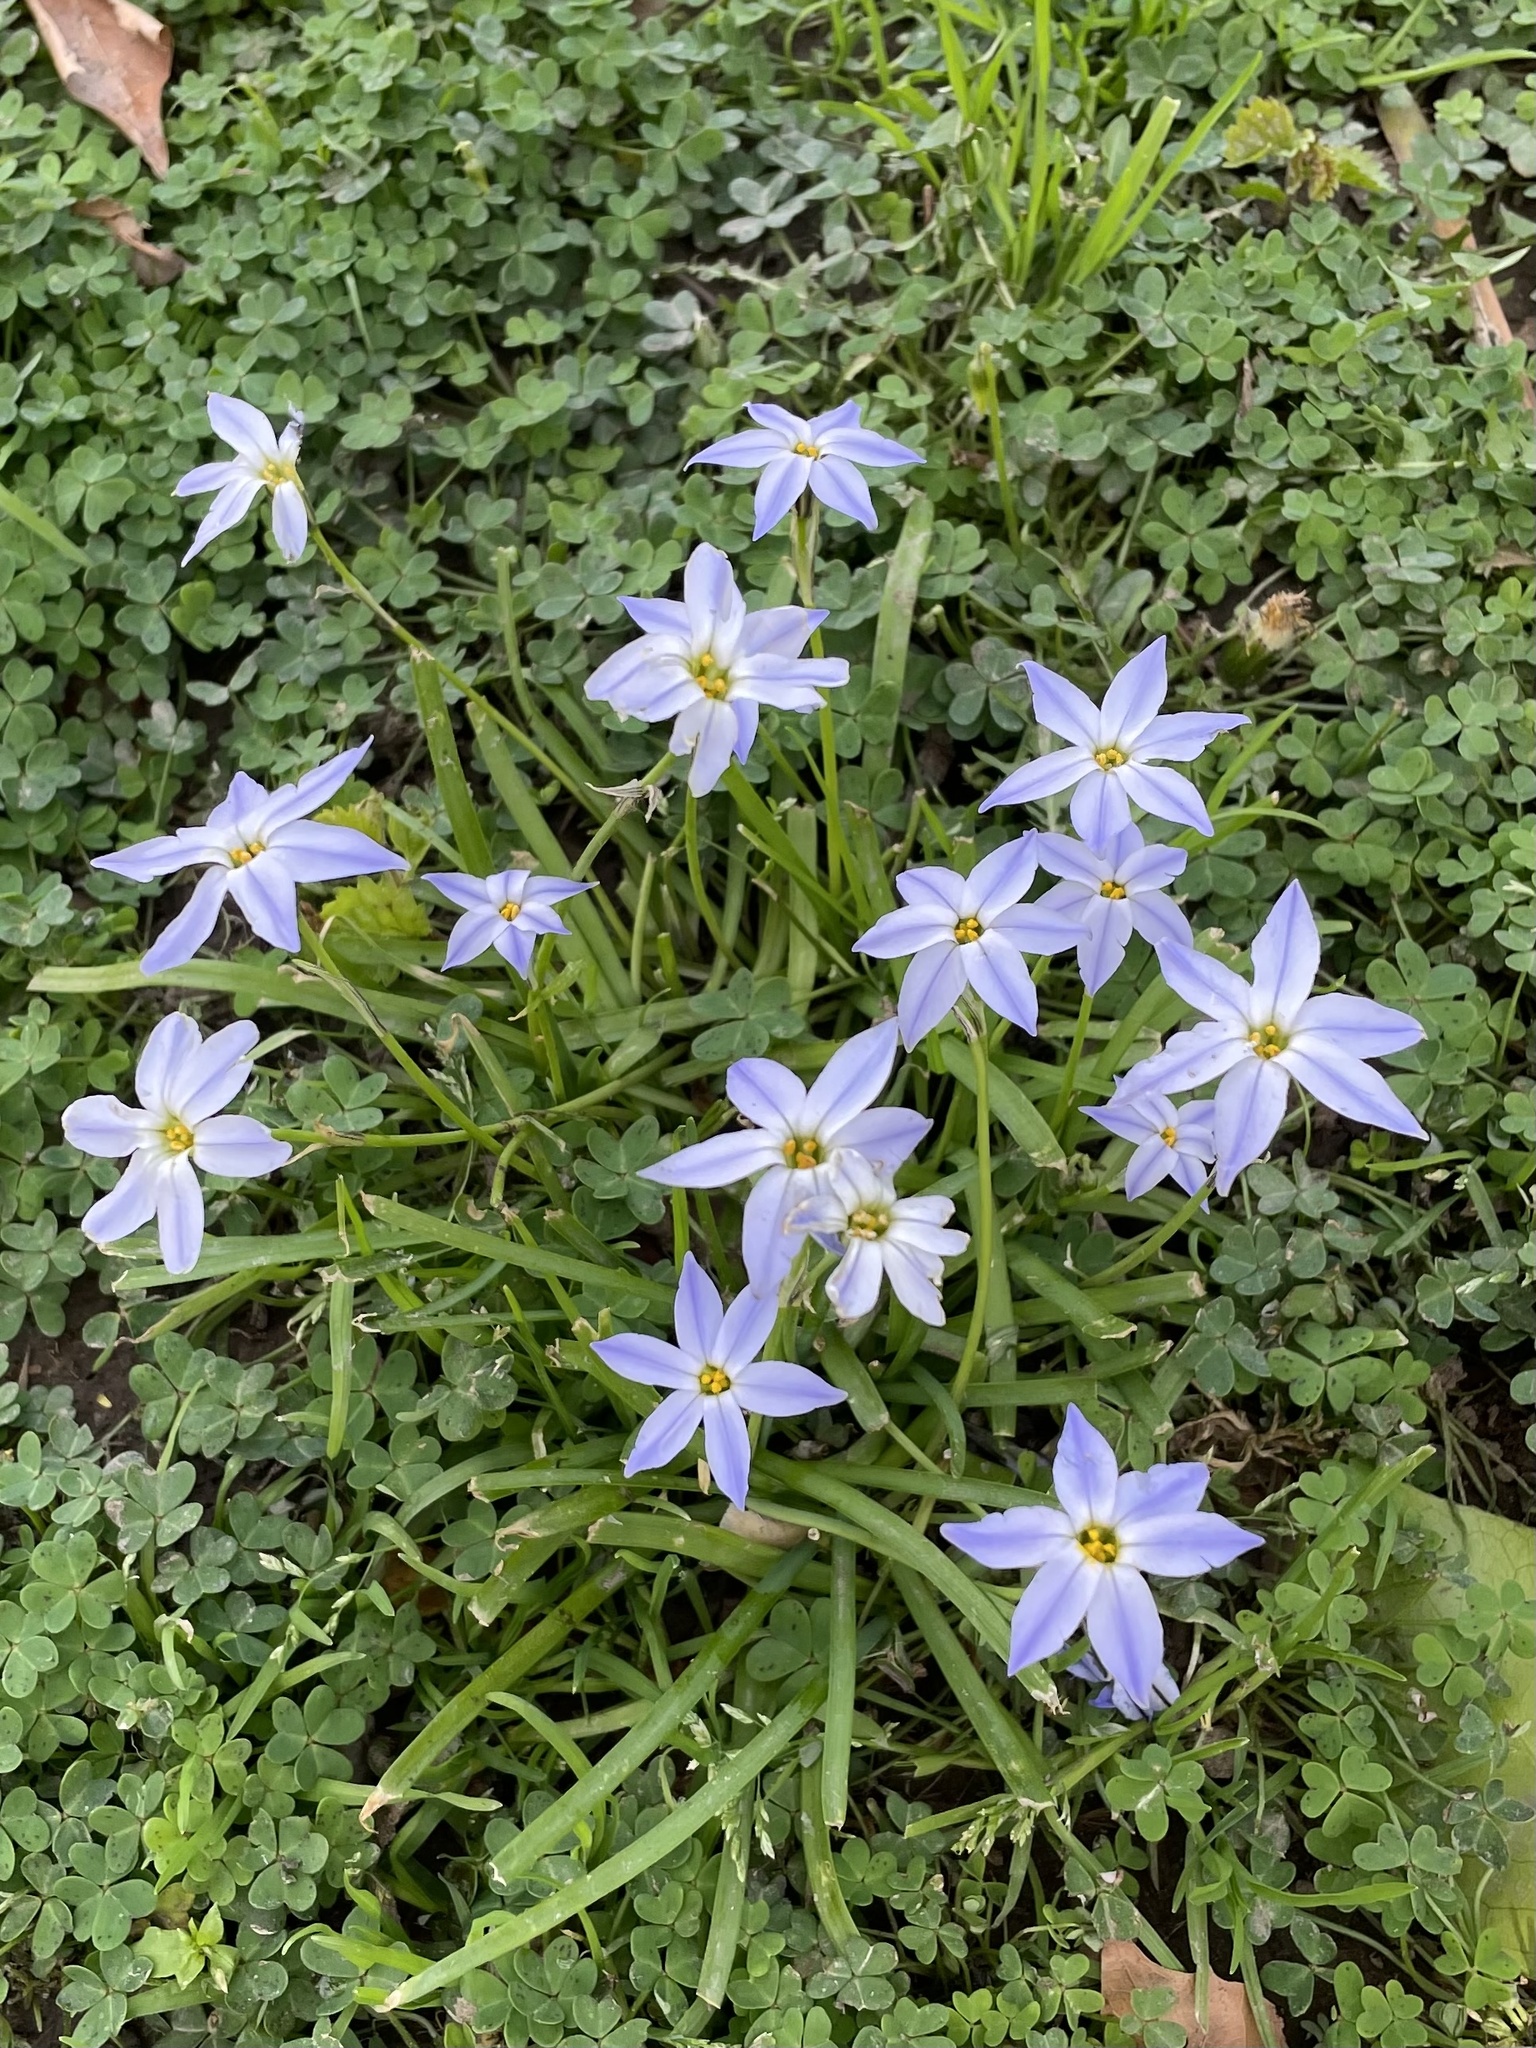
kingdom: Plantae
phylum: Tracheophyta
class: Liliopsida
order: Asparagales
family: Amaryllidaceae
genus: Ipheion
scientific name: Ipheion uniflorum
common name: Spring starflower
